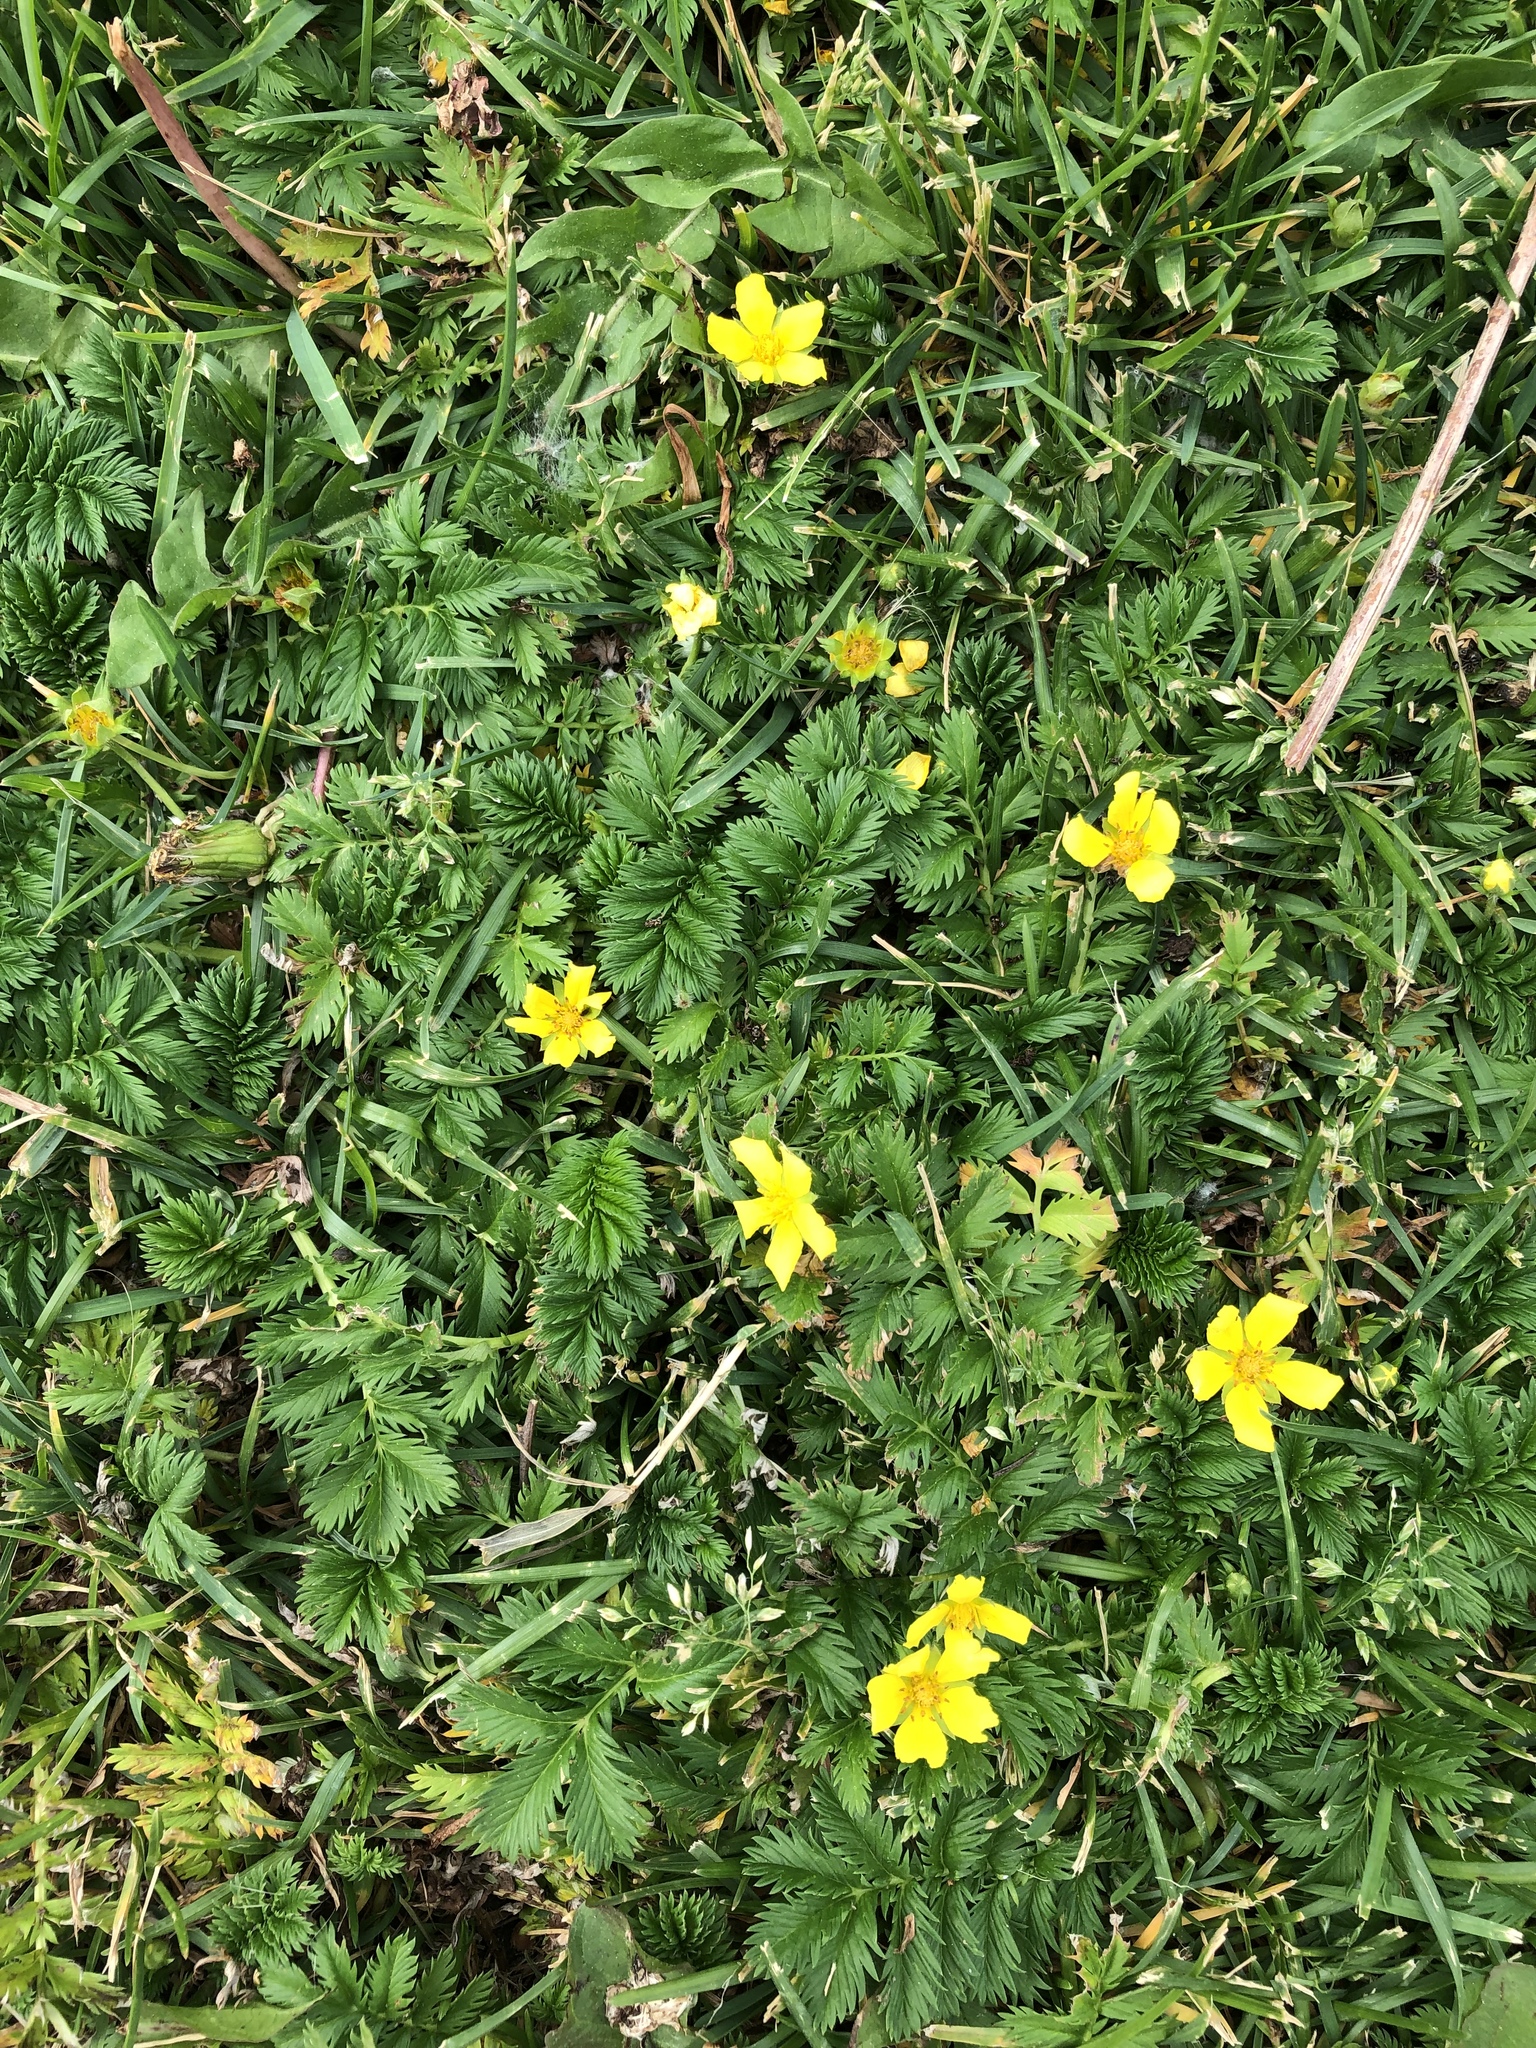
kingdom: Plantae
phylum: Tracheophyta
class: Magnoliopsida
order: Rosales
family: Rosaceae
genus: Argentina
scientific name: Argentina anserina
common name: Common silverweed
